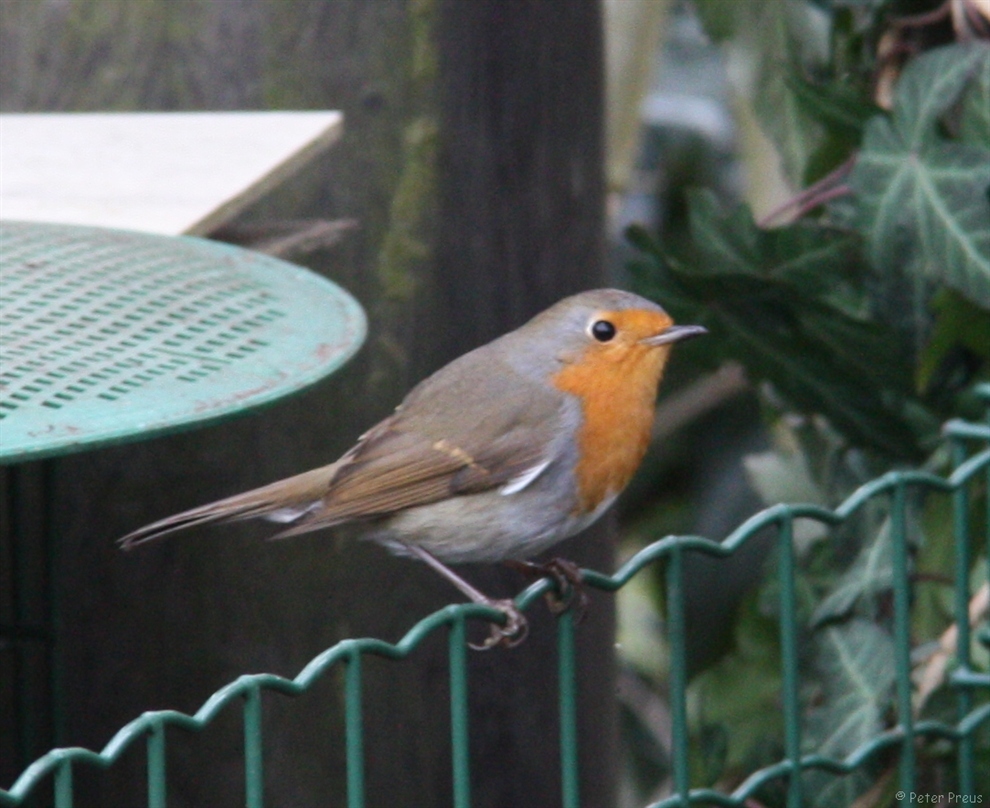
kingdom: Animalia
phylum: Chordata
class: Aves
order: Passeriformes
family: Muscicapidae
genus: Erithacus
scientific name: Erithacus rubecula
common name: European robin
